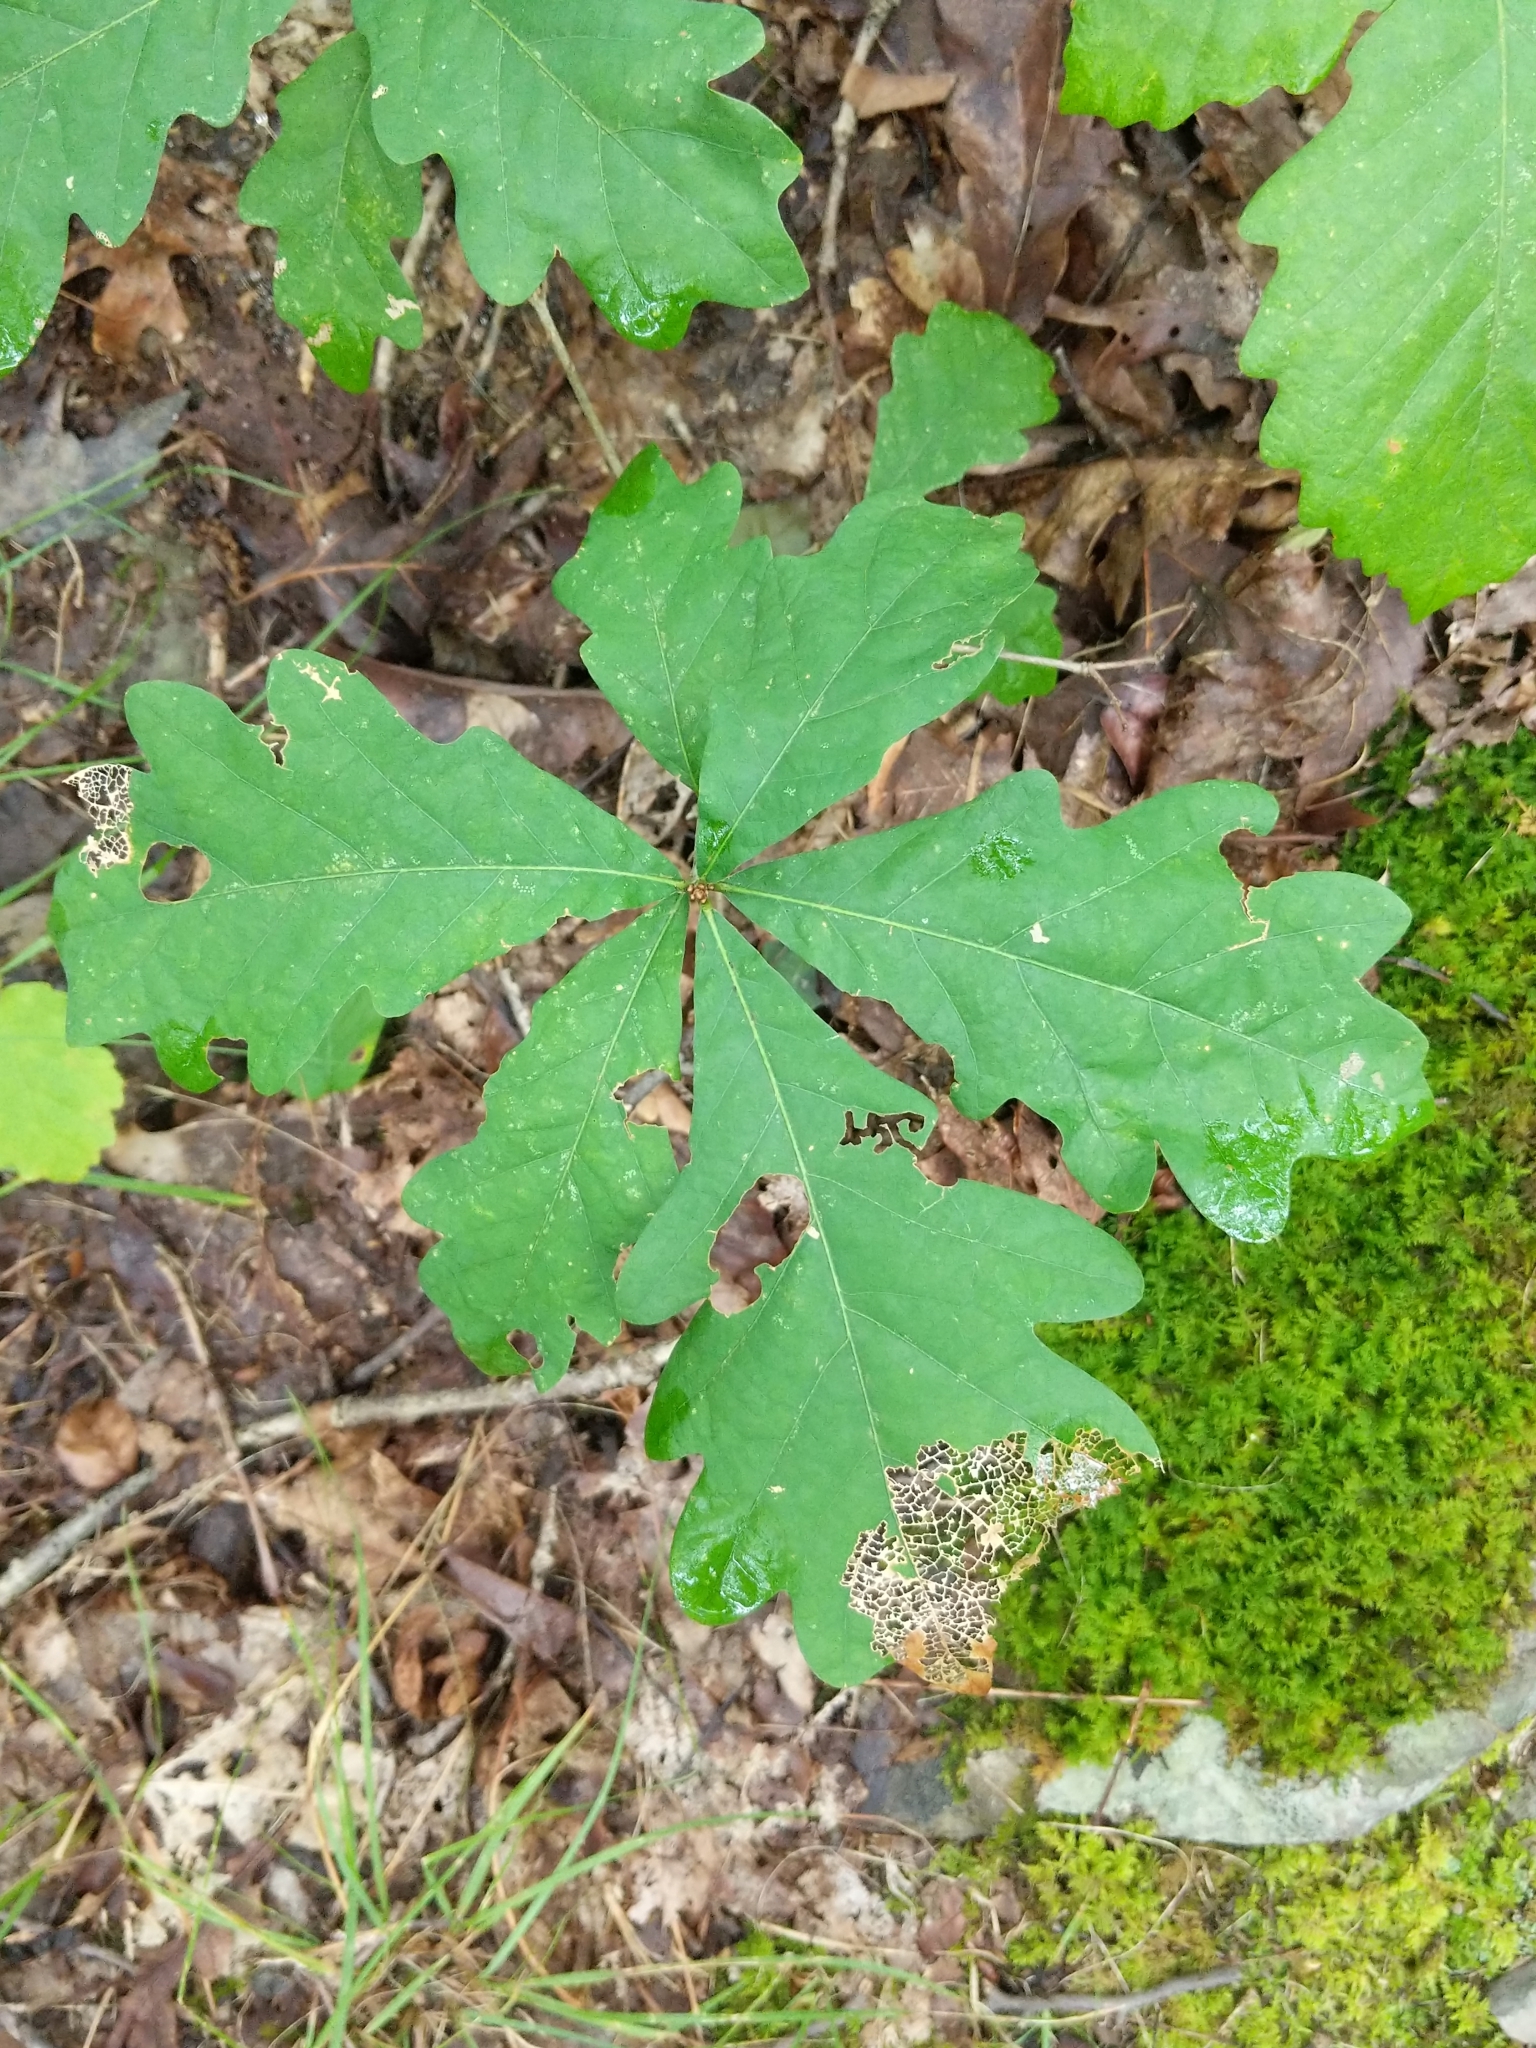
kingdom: Plantae
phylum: Tracheophyta
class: Magnoliopsida
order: Fagales
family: Fagaceae
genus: Quercus
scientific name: Quercus alba
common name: White oak
